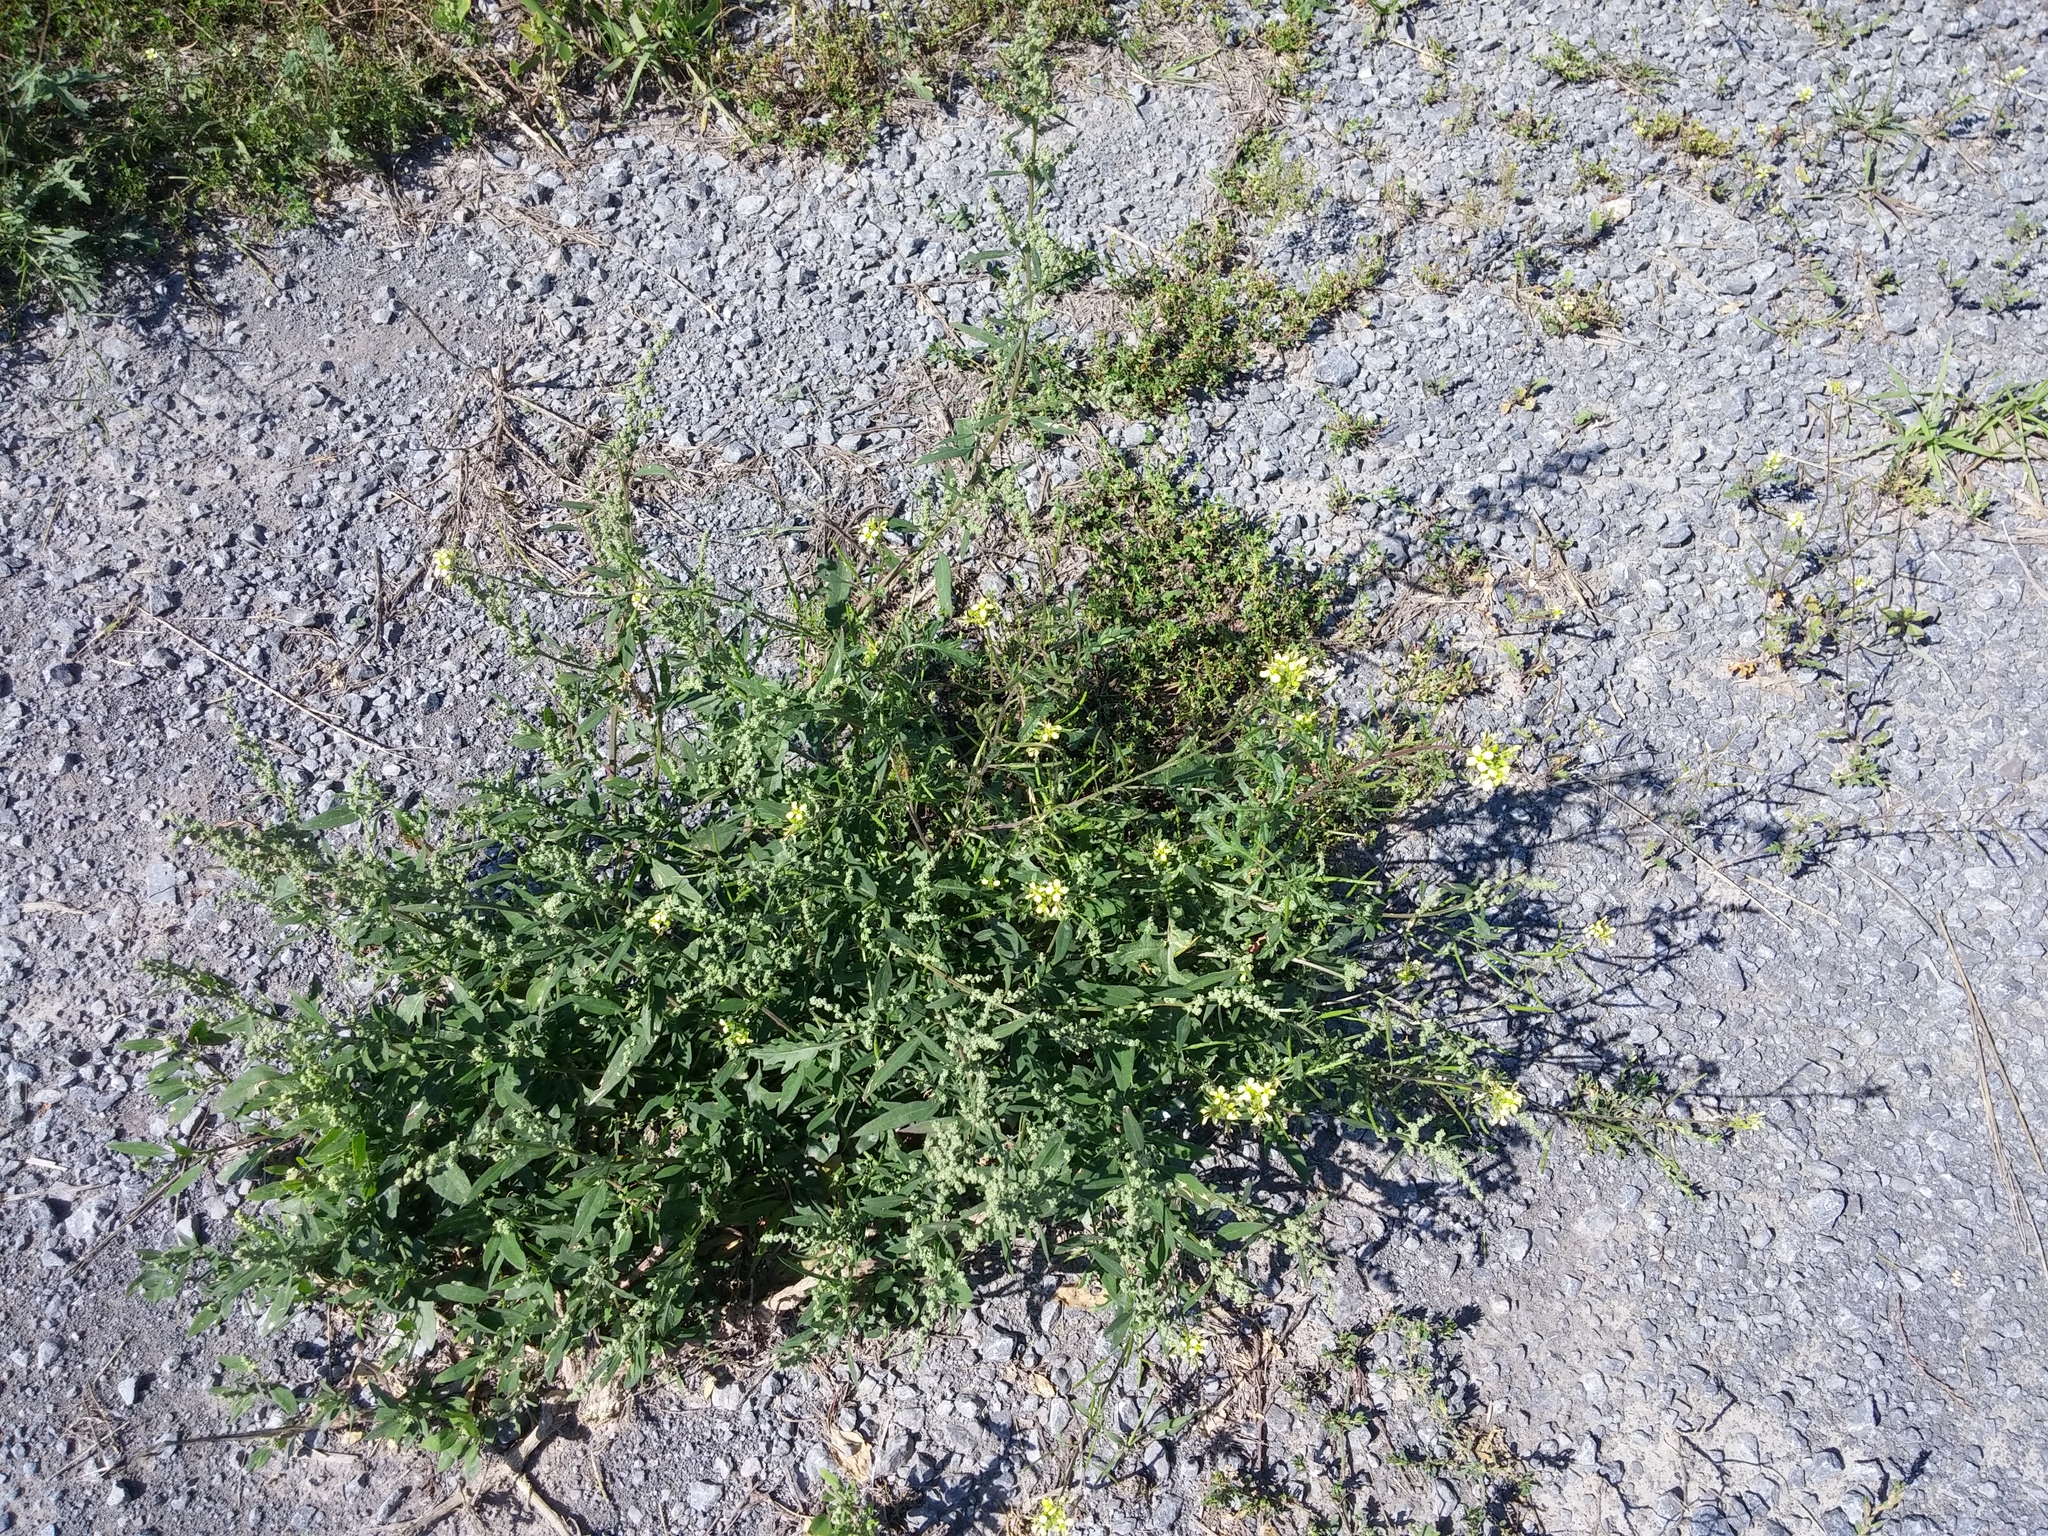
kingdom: Plantae
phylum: Tracheophyta
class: Magnoliopsida
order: Brassicales
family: Brassicaceae
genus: Erucastrum
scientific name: Erucastrum gallicum
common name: Hairy rocket
